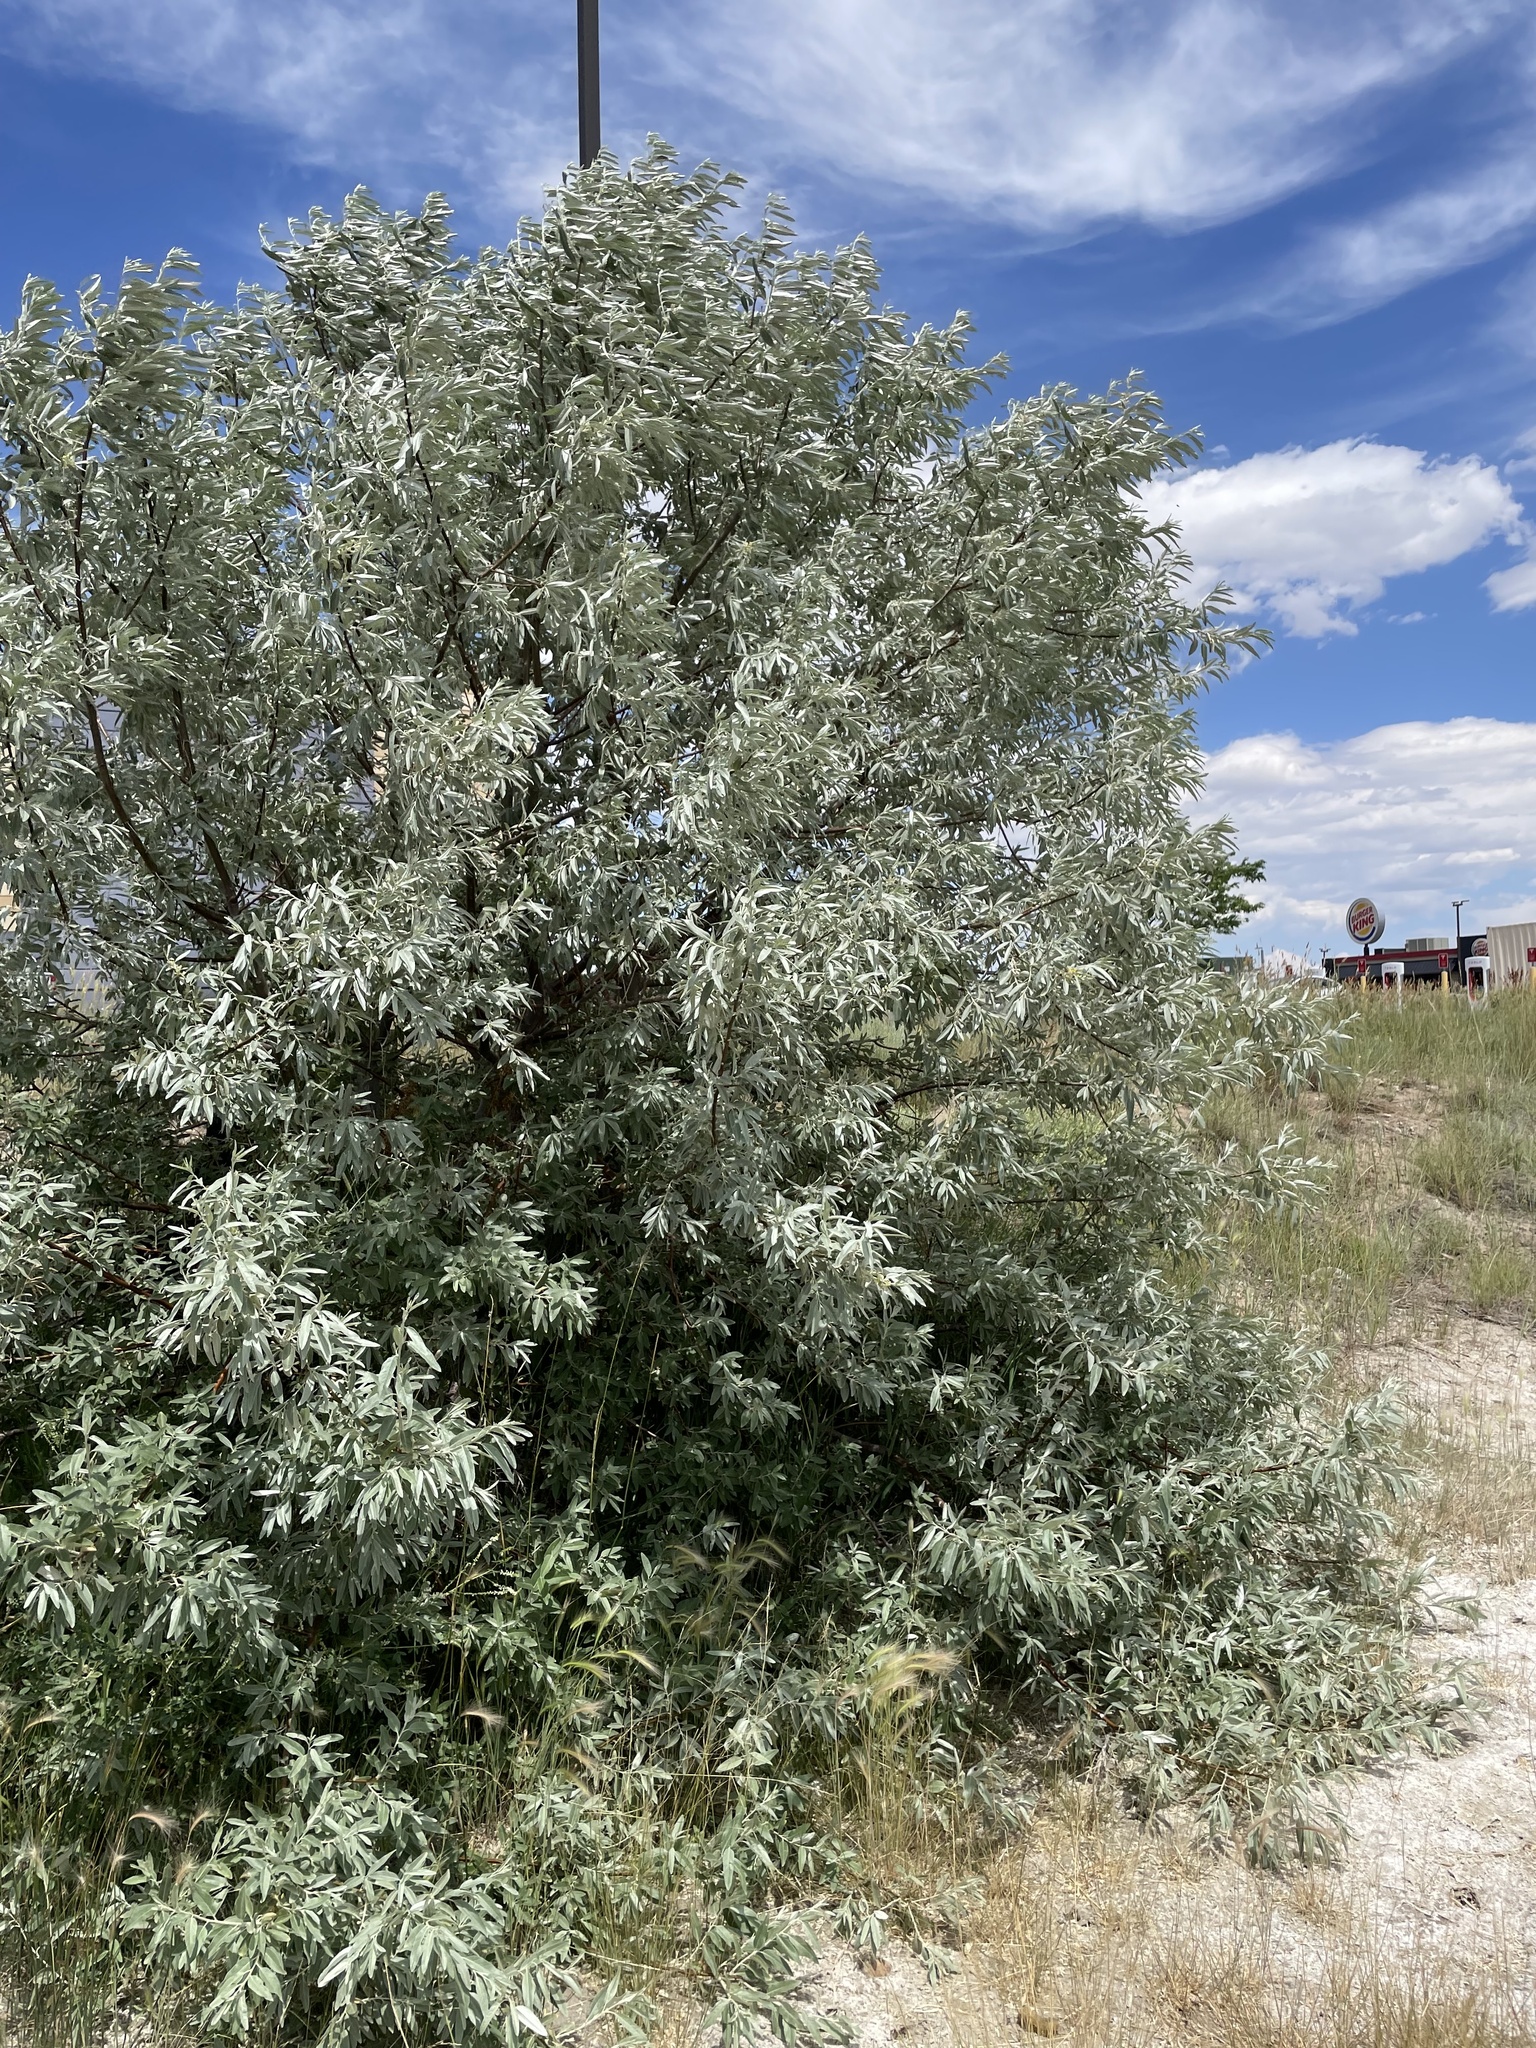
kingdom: Plantae
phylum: Tracheophyta
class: Magnoliopsida
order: Rosales
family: Elaeagnaceae
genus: Elaeagnus
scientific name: Elaeagnus angustifolia
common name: Russian olive
